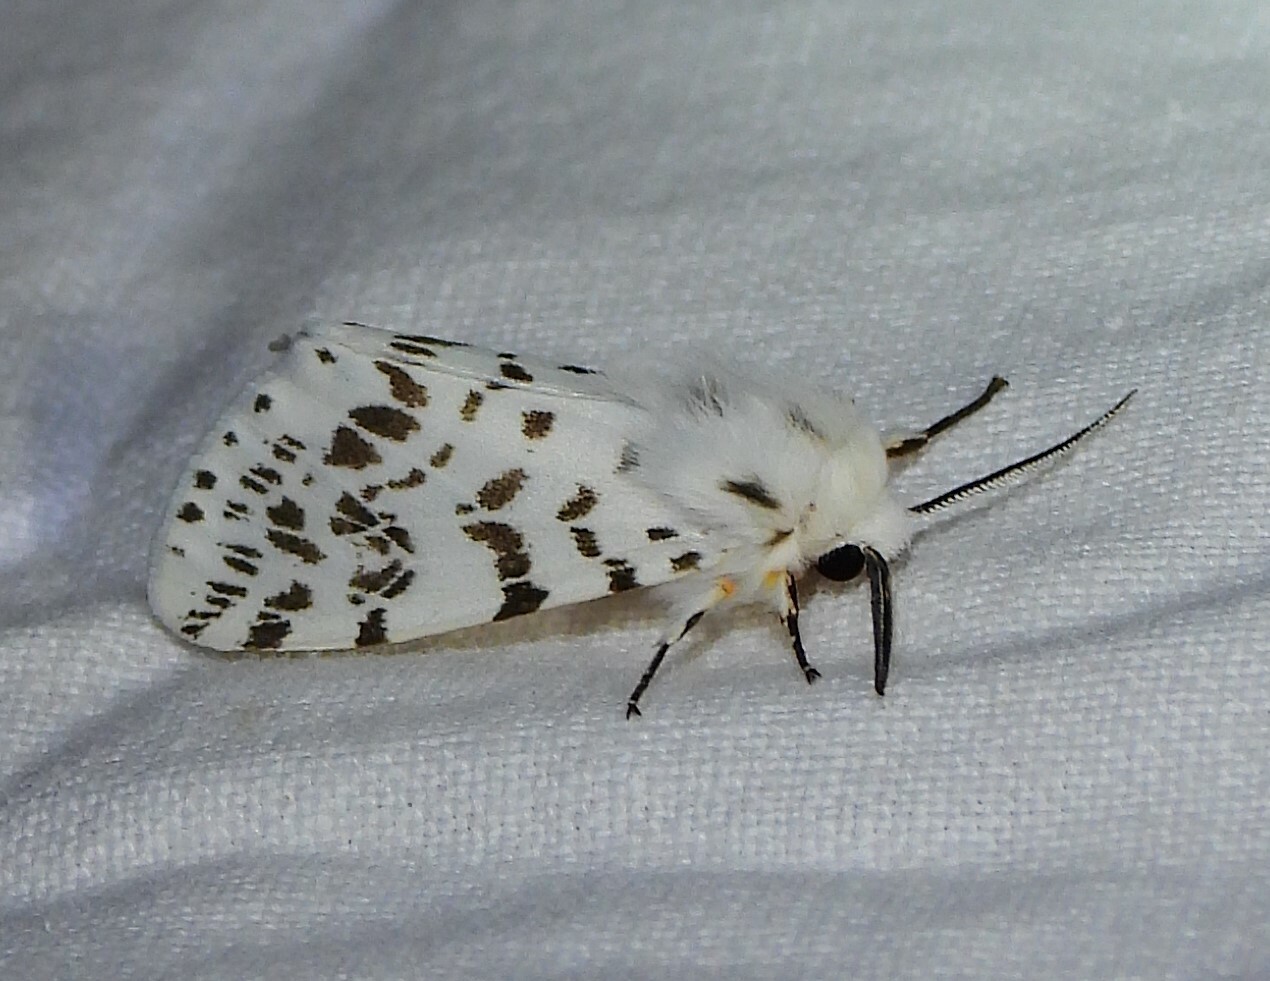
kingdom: Animalia
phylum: Arthropoda
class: Insecta
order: Lepidoptera
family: Erebidae
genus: Hyphantria
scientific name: Hyphantria cunea
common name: American white moth
